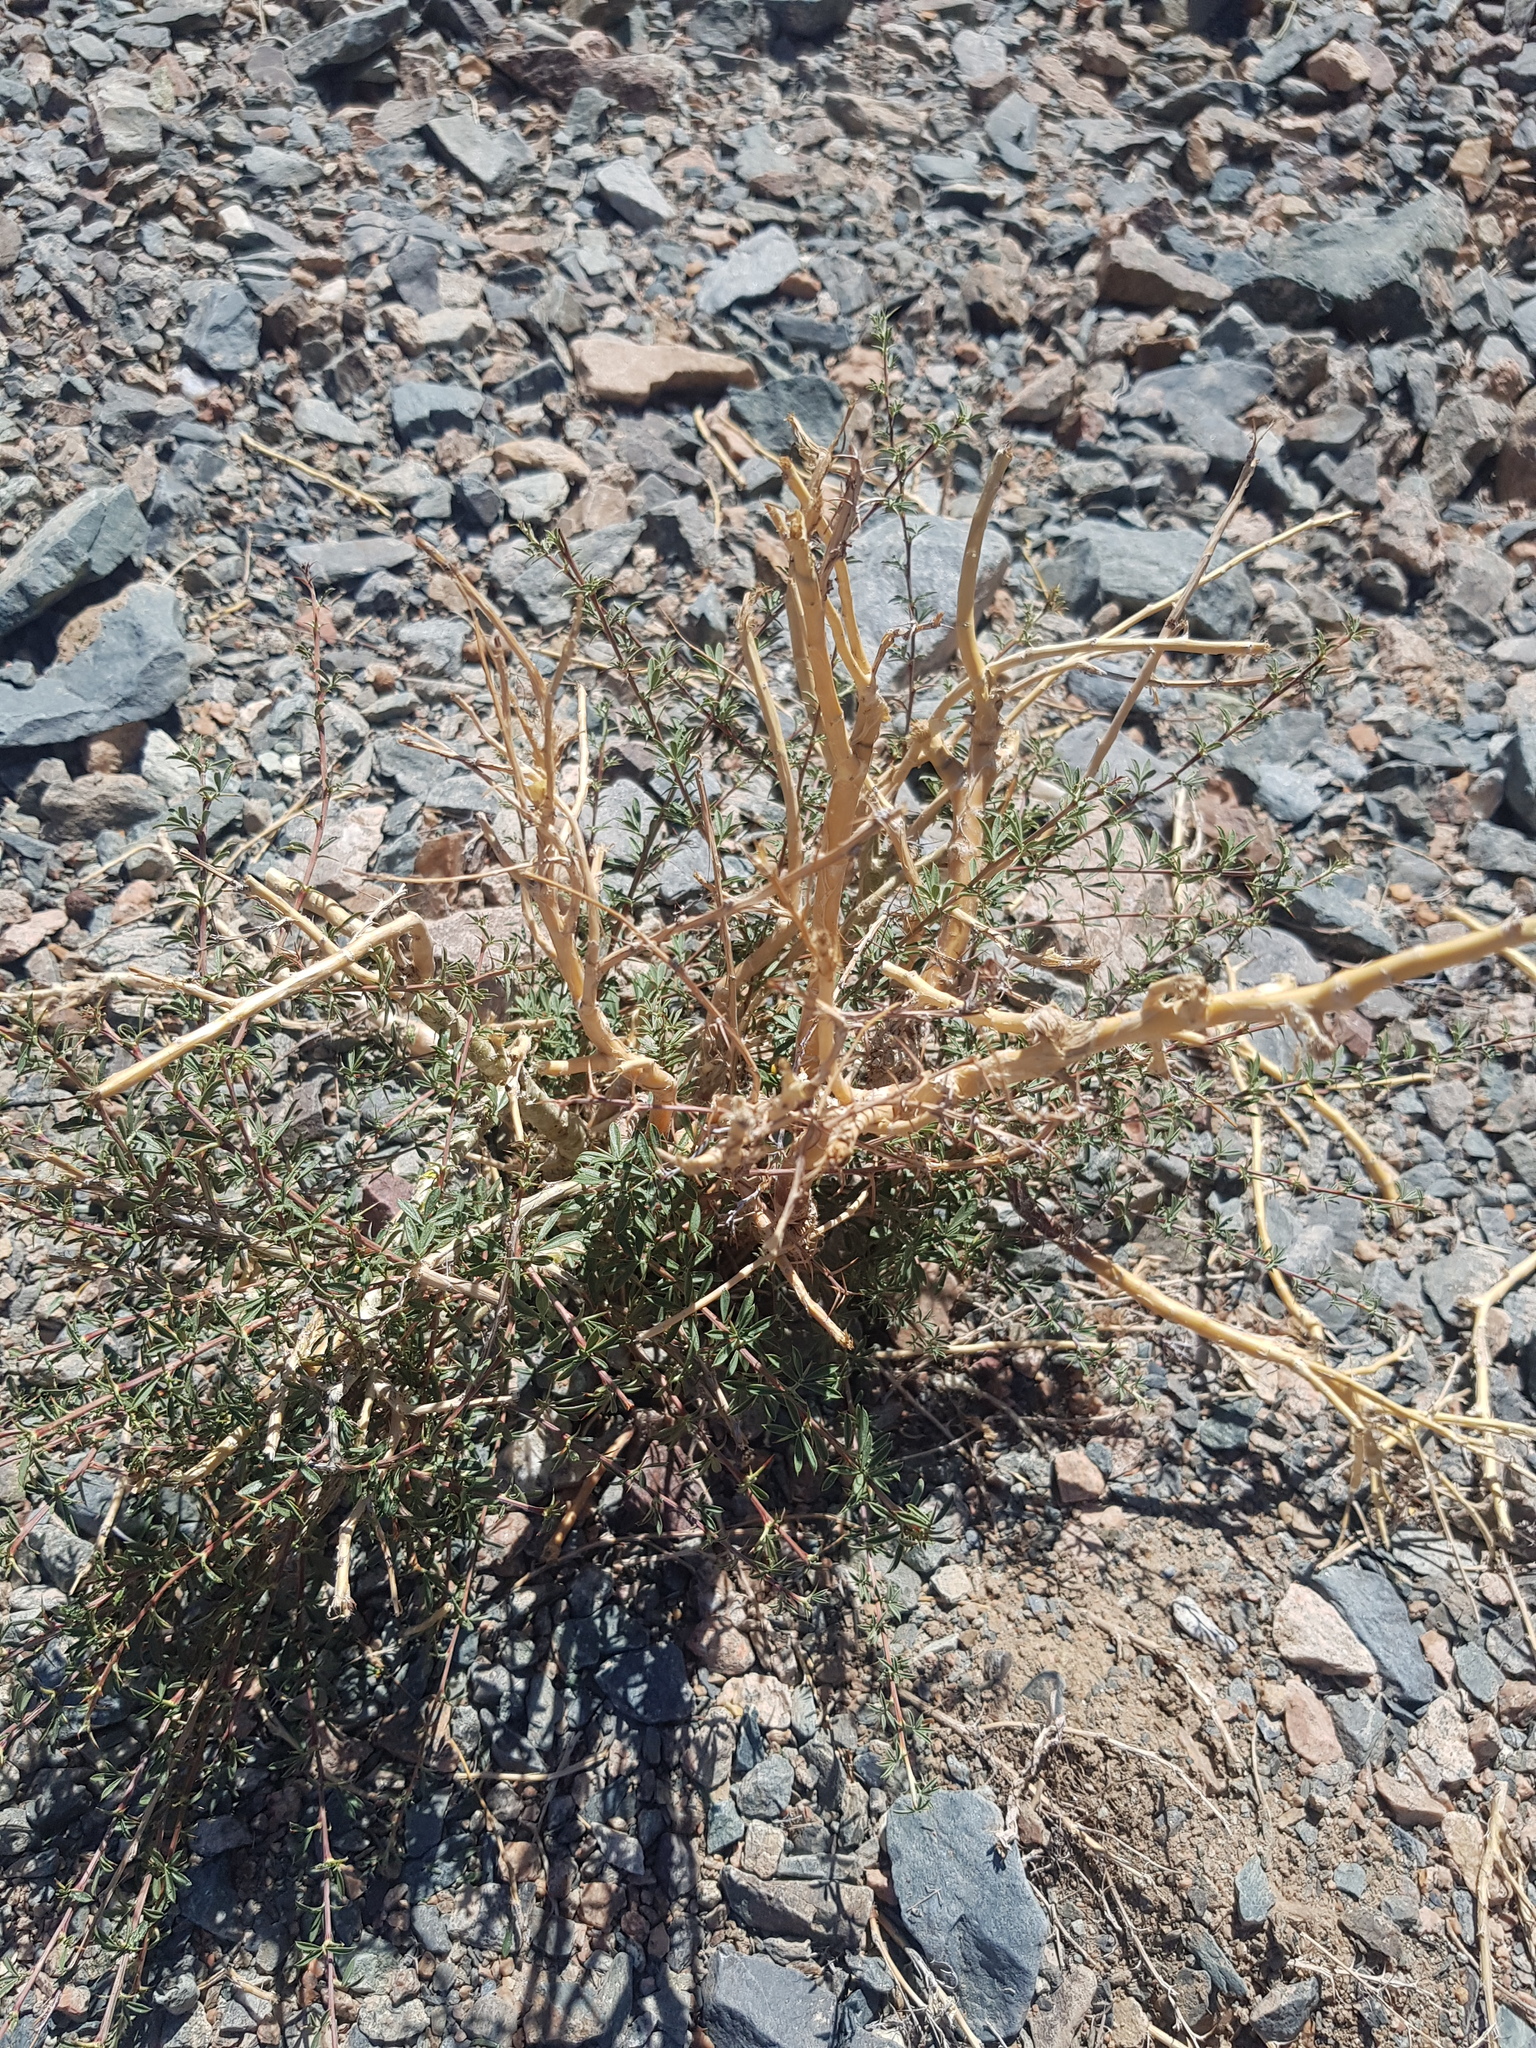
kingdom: Plantae
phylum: Tracheophyta
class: Magnoliopsida
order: Fabales
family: Fabaceae
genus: Caragana
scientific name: Caragana leucophloea
